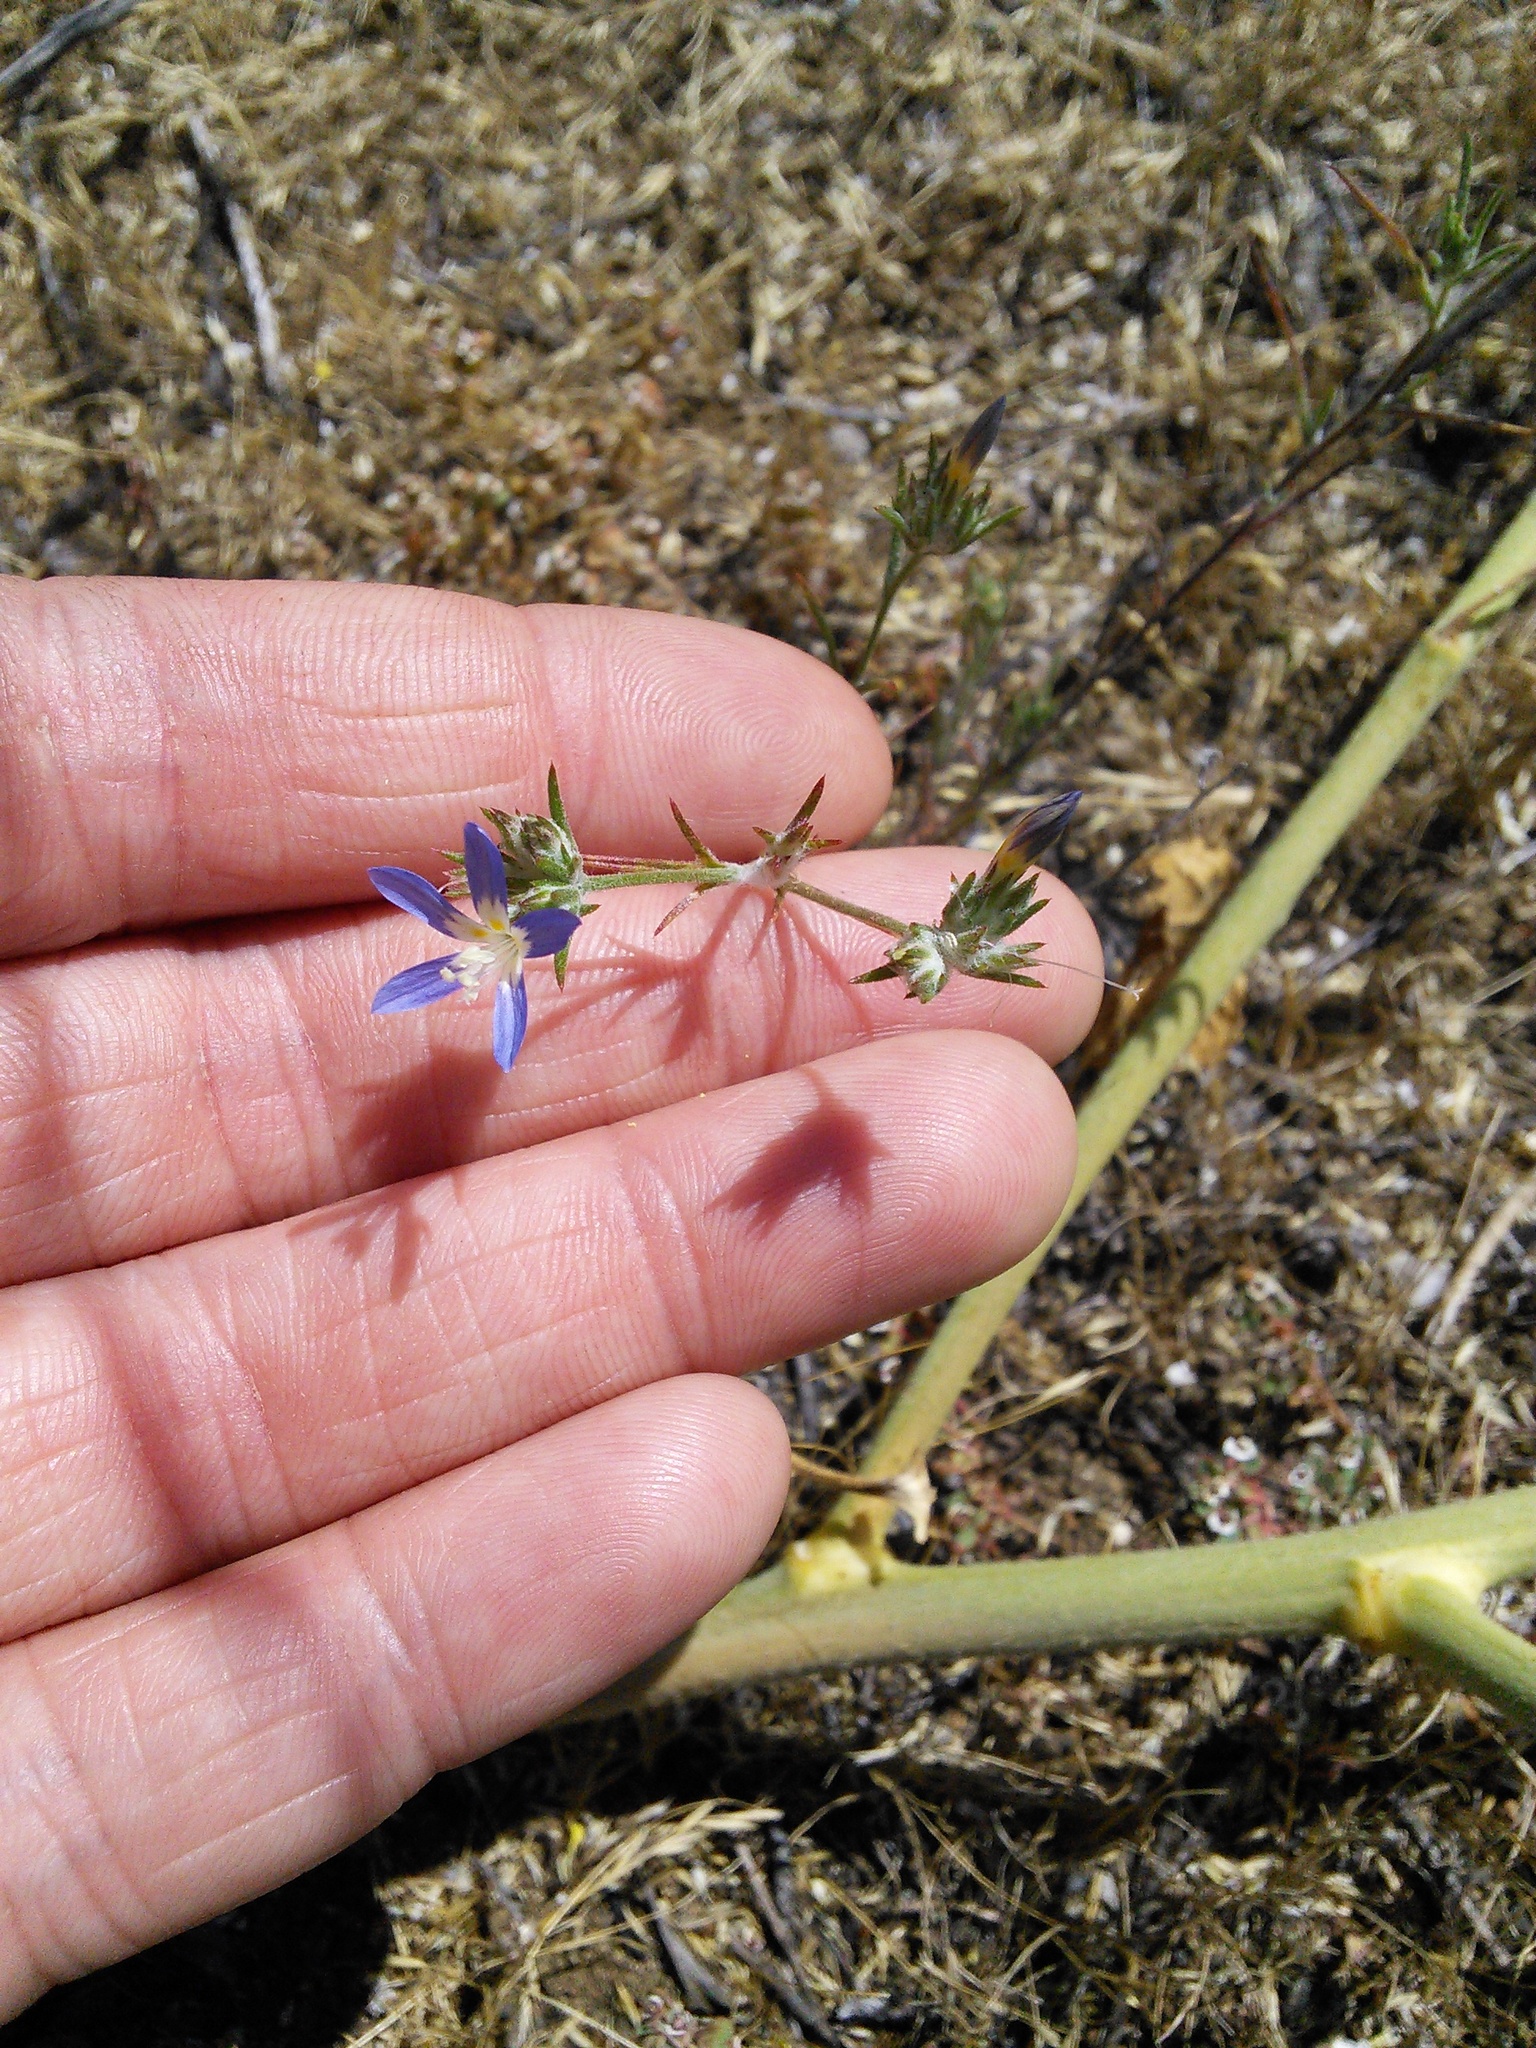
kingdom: Plantae
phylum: Tracheophyta
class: Magnoliopsida
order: Ericales
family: Polemoniaceae
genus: Eriastrum
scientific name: Eriastrum sapphirinum
